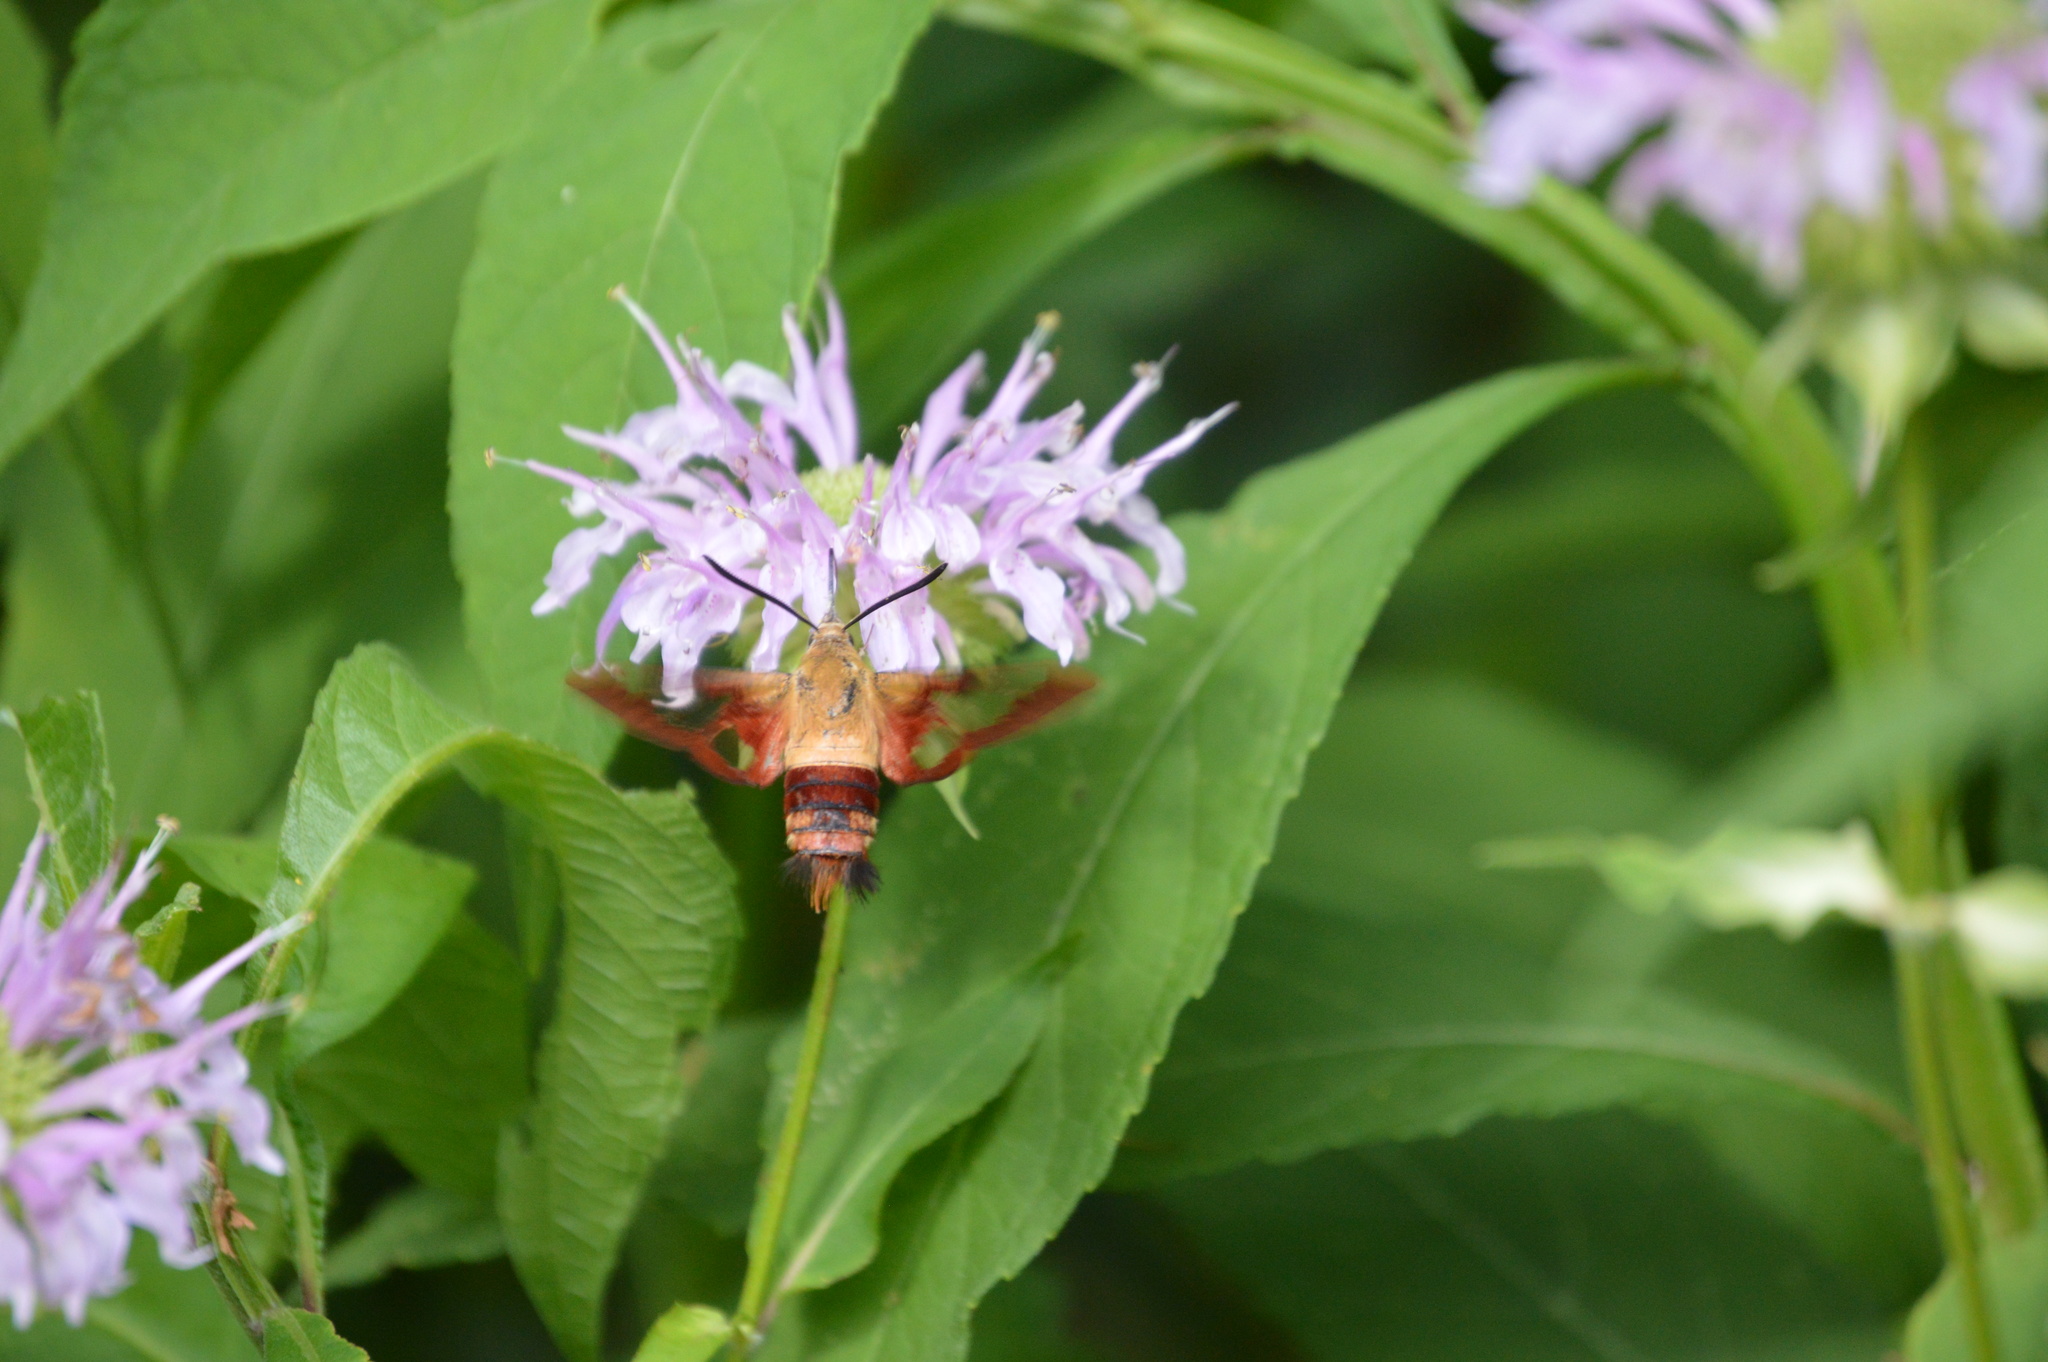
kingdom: Animalia
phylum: Arthropoda
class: Insecta
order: Lepidoptera
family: Sphingidae
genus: Hemaris
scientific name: Hemaris thysbe
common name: Common clear-wing
